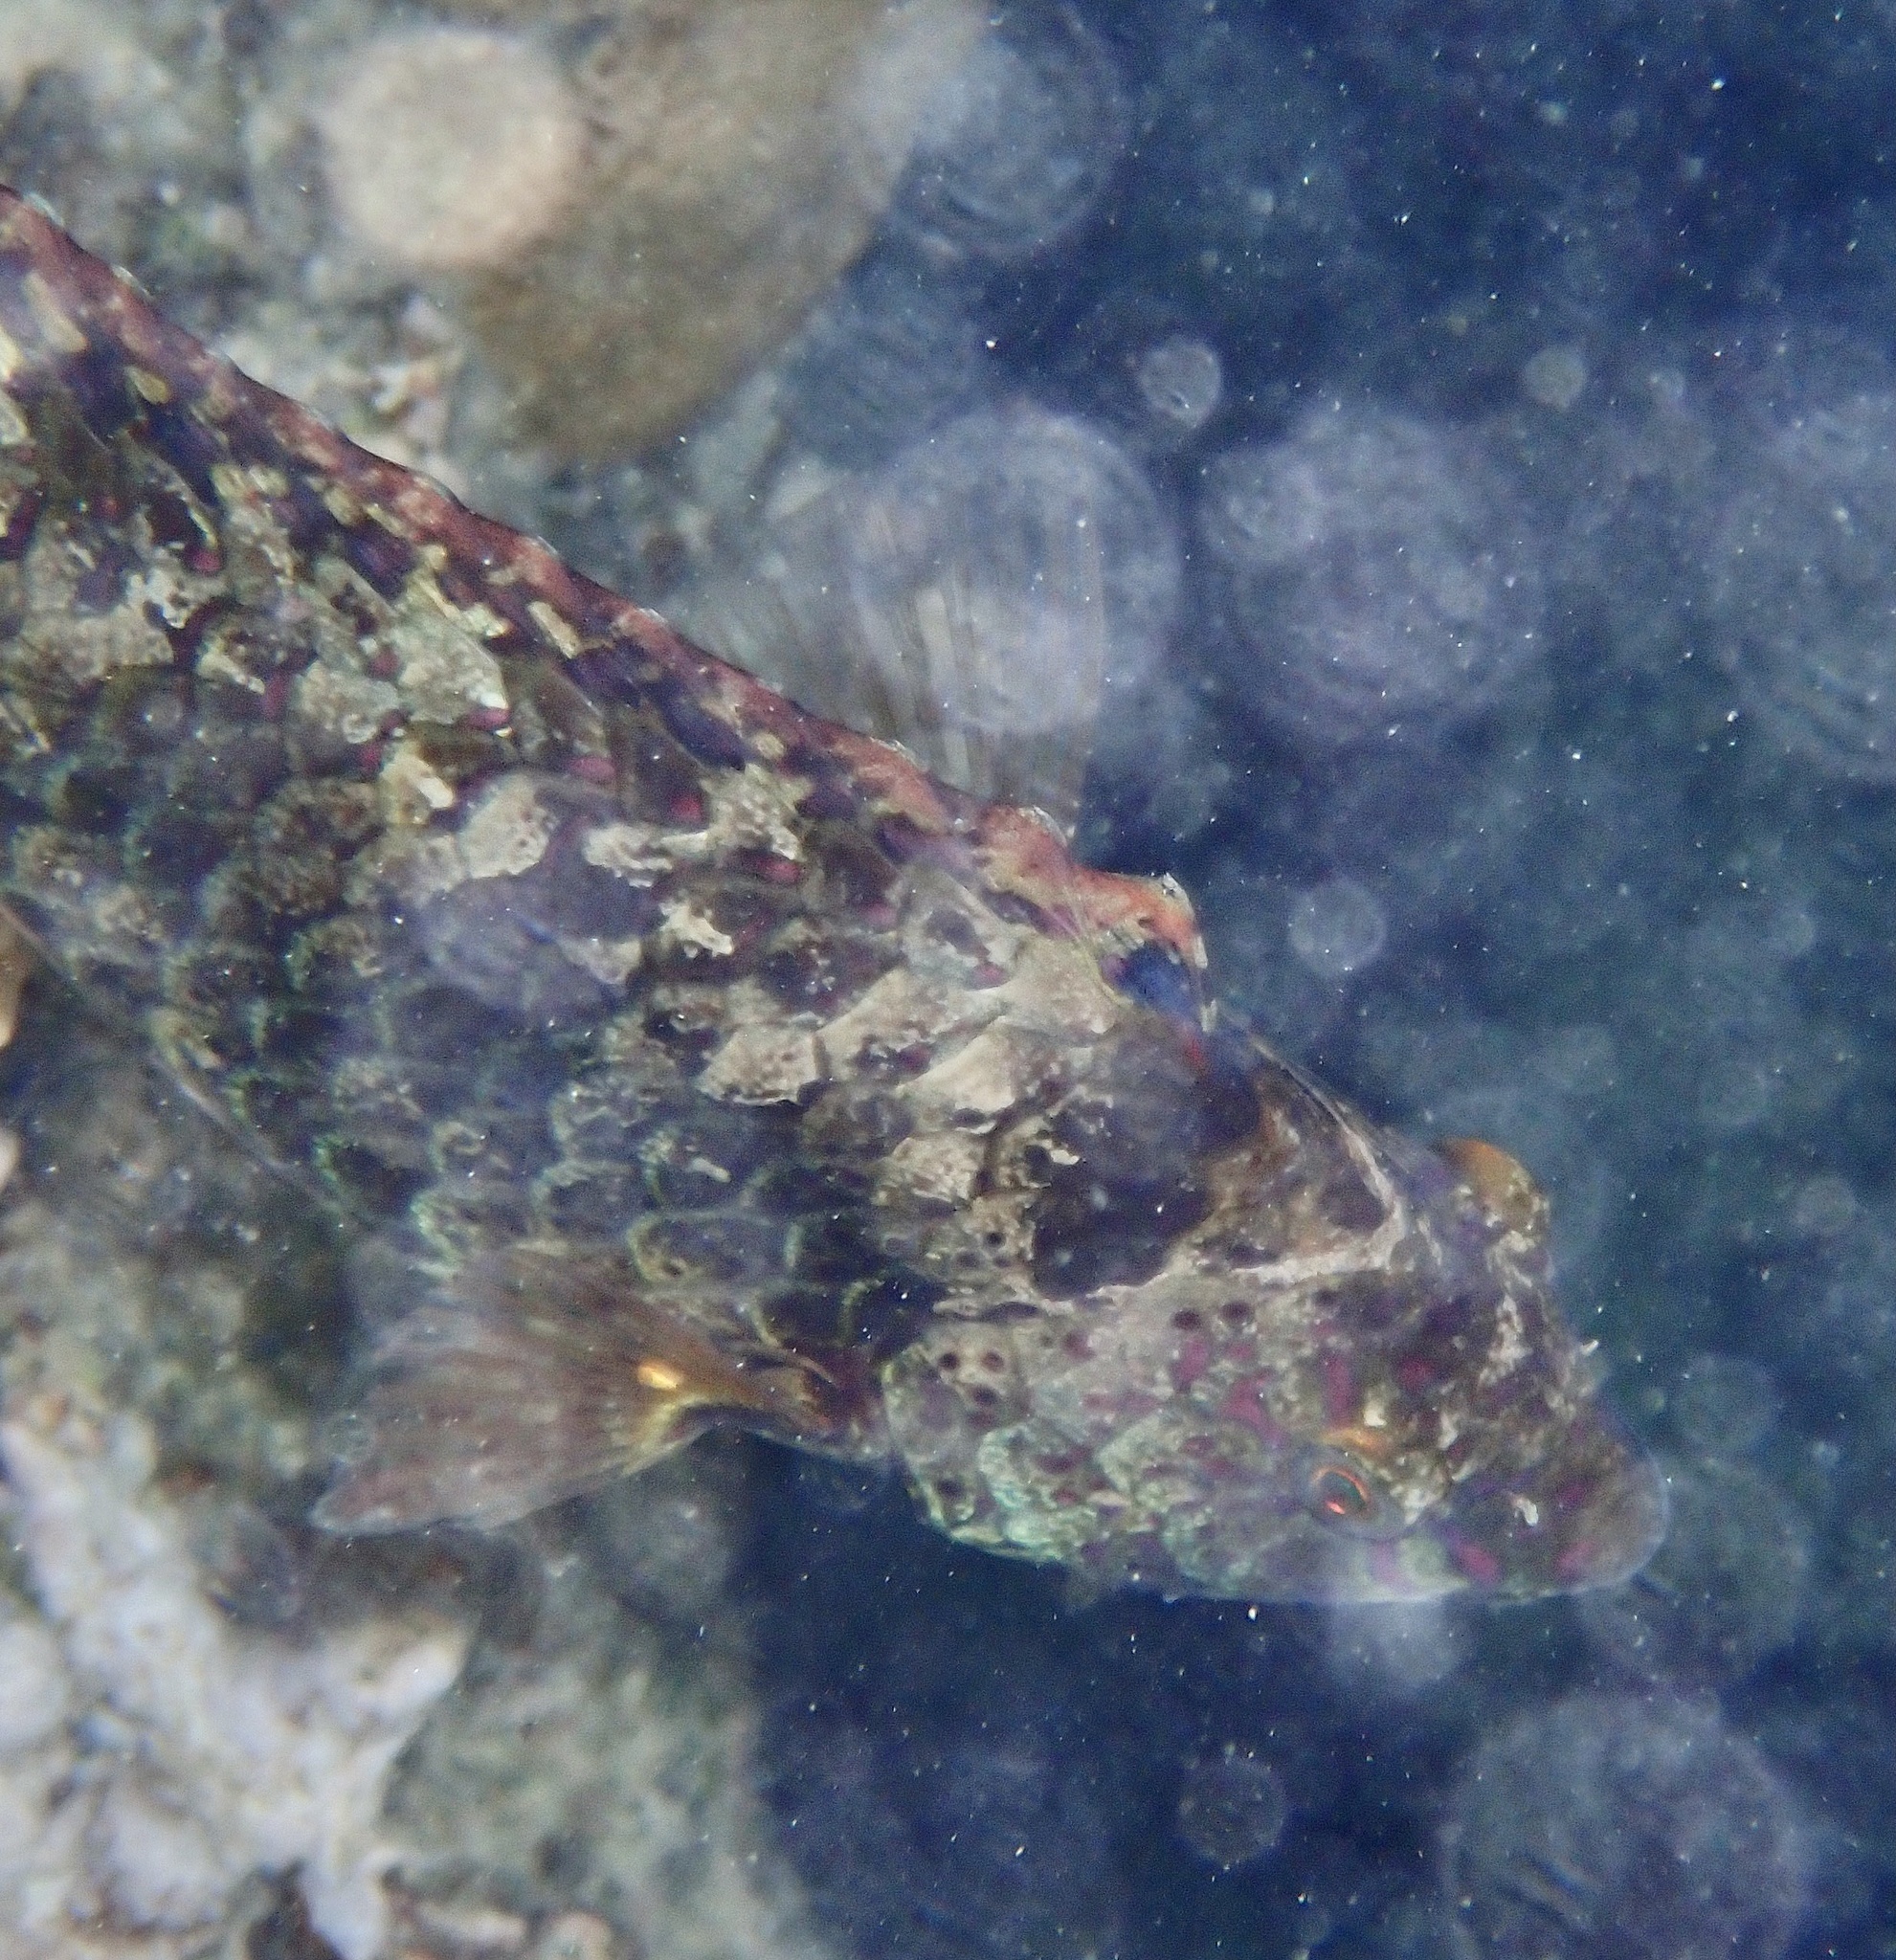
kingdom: Animalia
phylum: Chordata
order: Perciformes
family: Scaridae
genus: Calotomus
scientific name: Calotomus viridescens
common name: Dotted parrotfish
